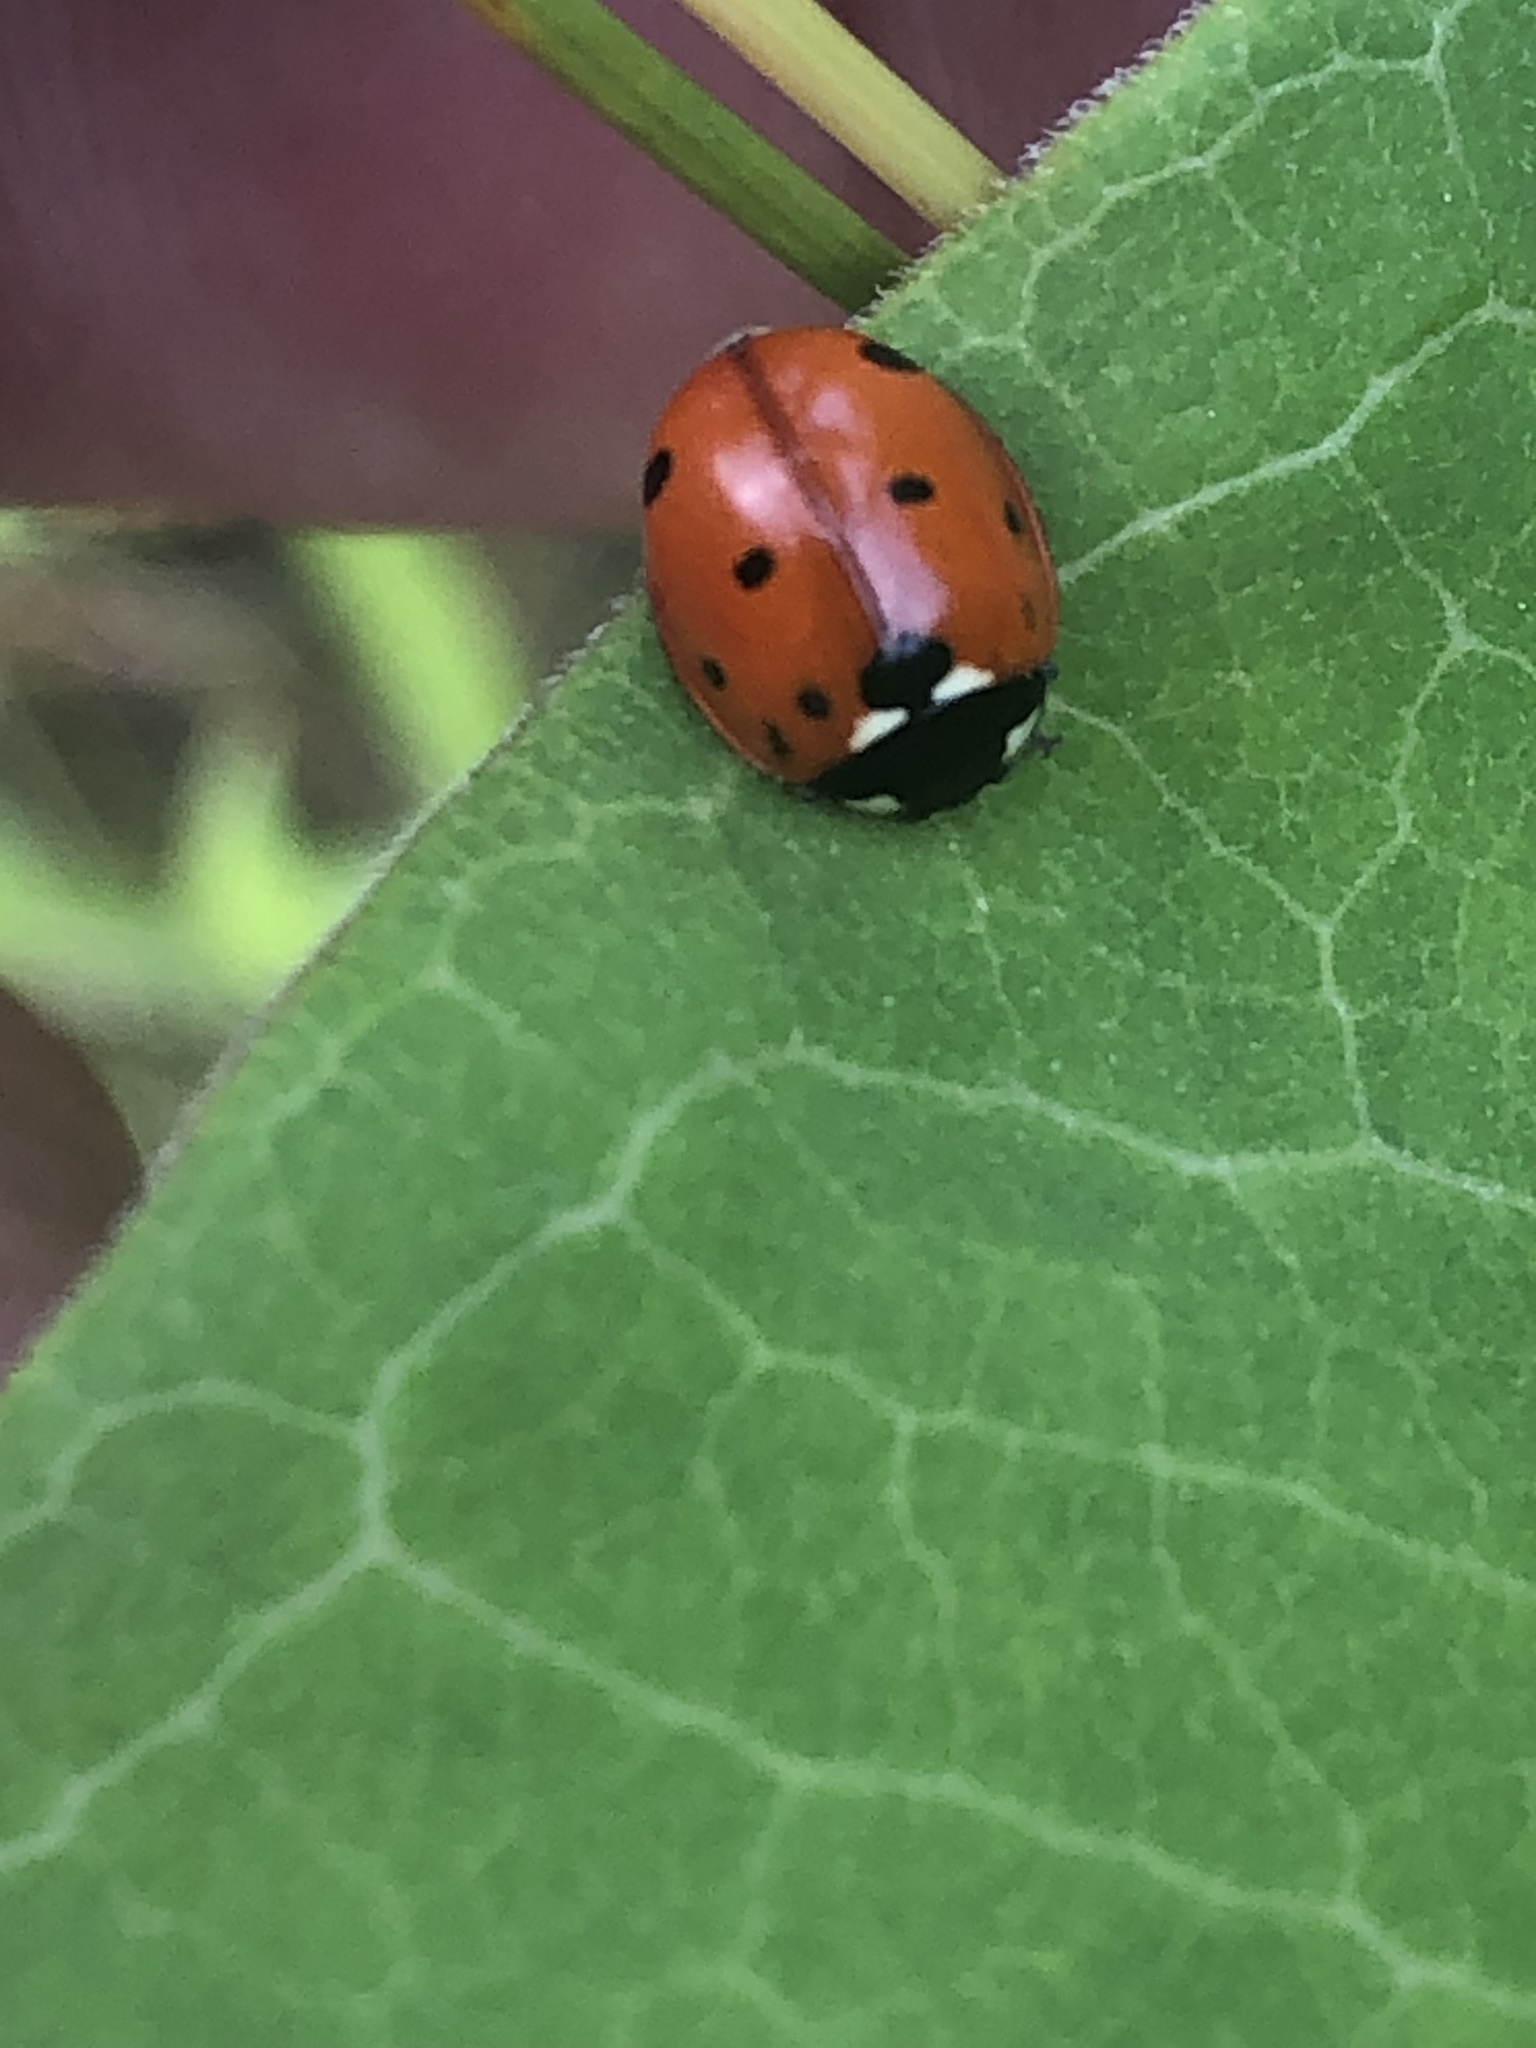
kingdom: Animalia
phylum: Arthropoda
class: Insecta
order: Coleoptera
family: Coccinellidae
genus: Coccinella
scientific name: Coccinella septempunctata
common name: Sevenspotted lady beetle
